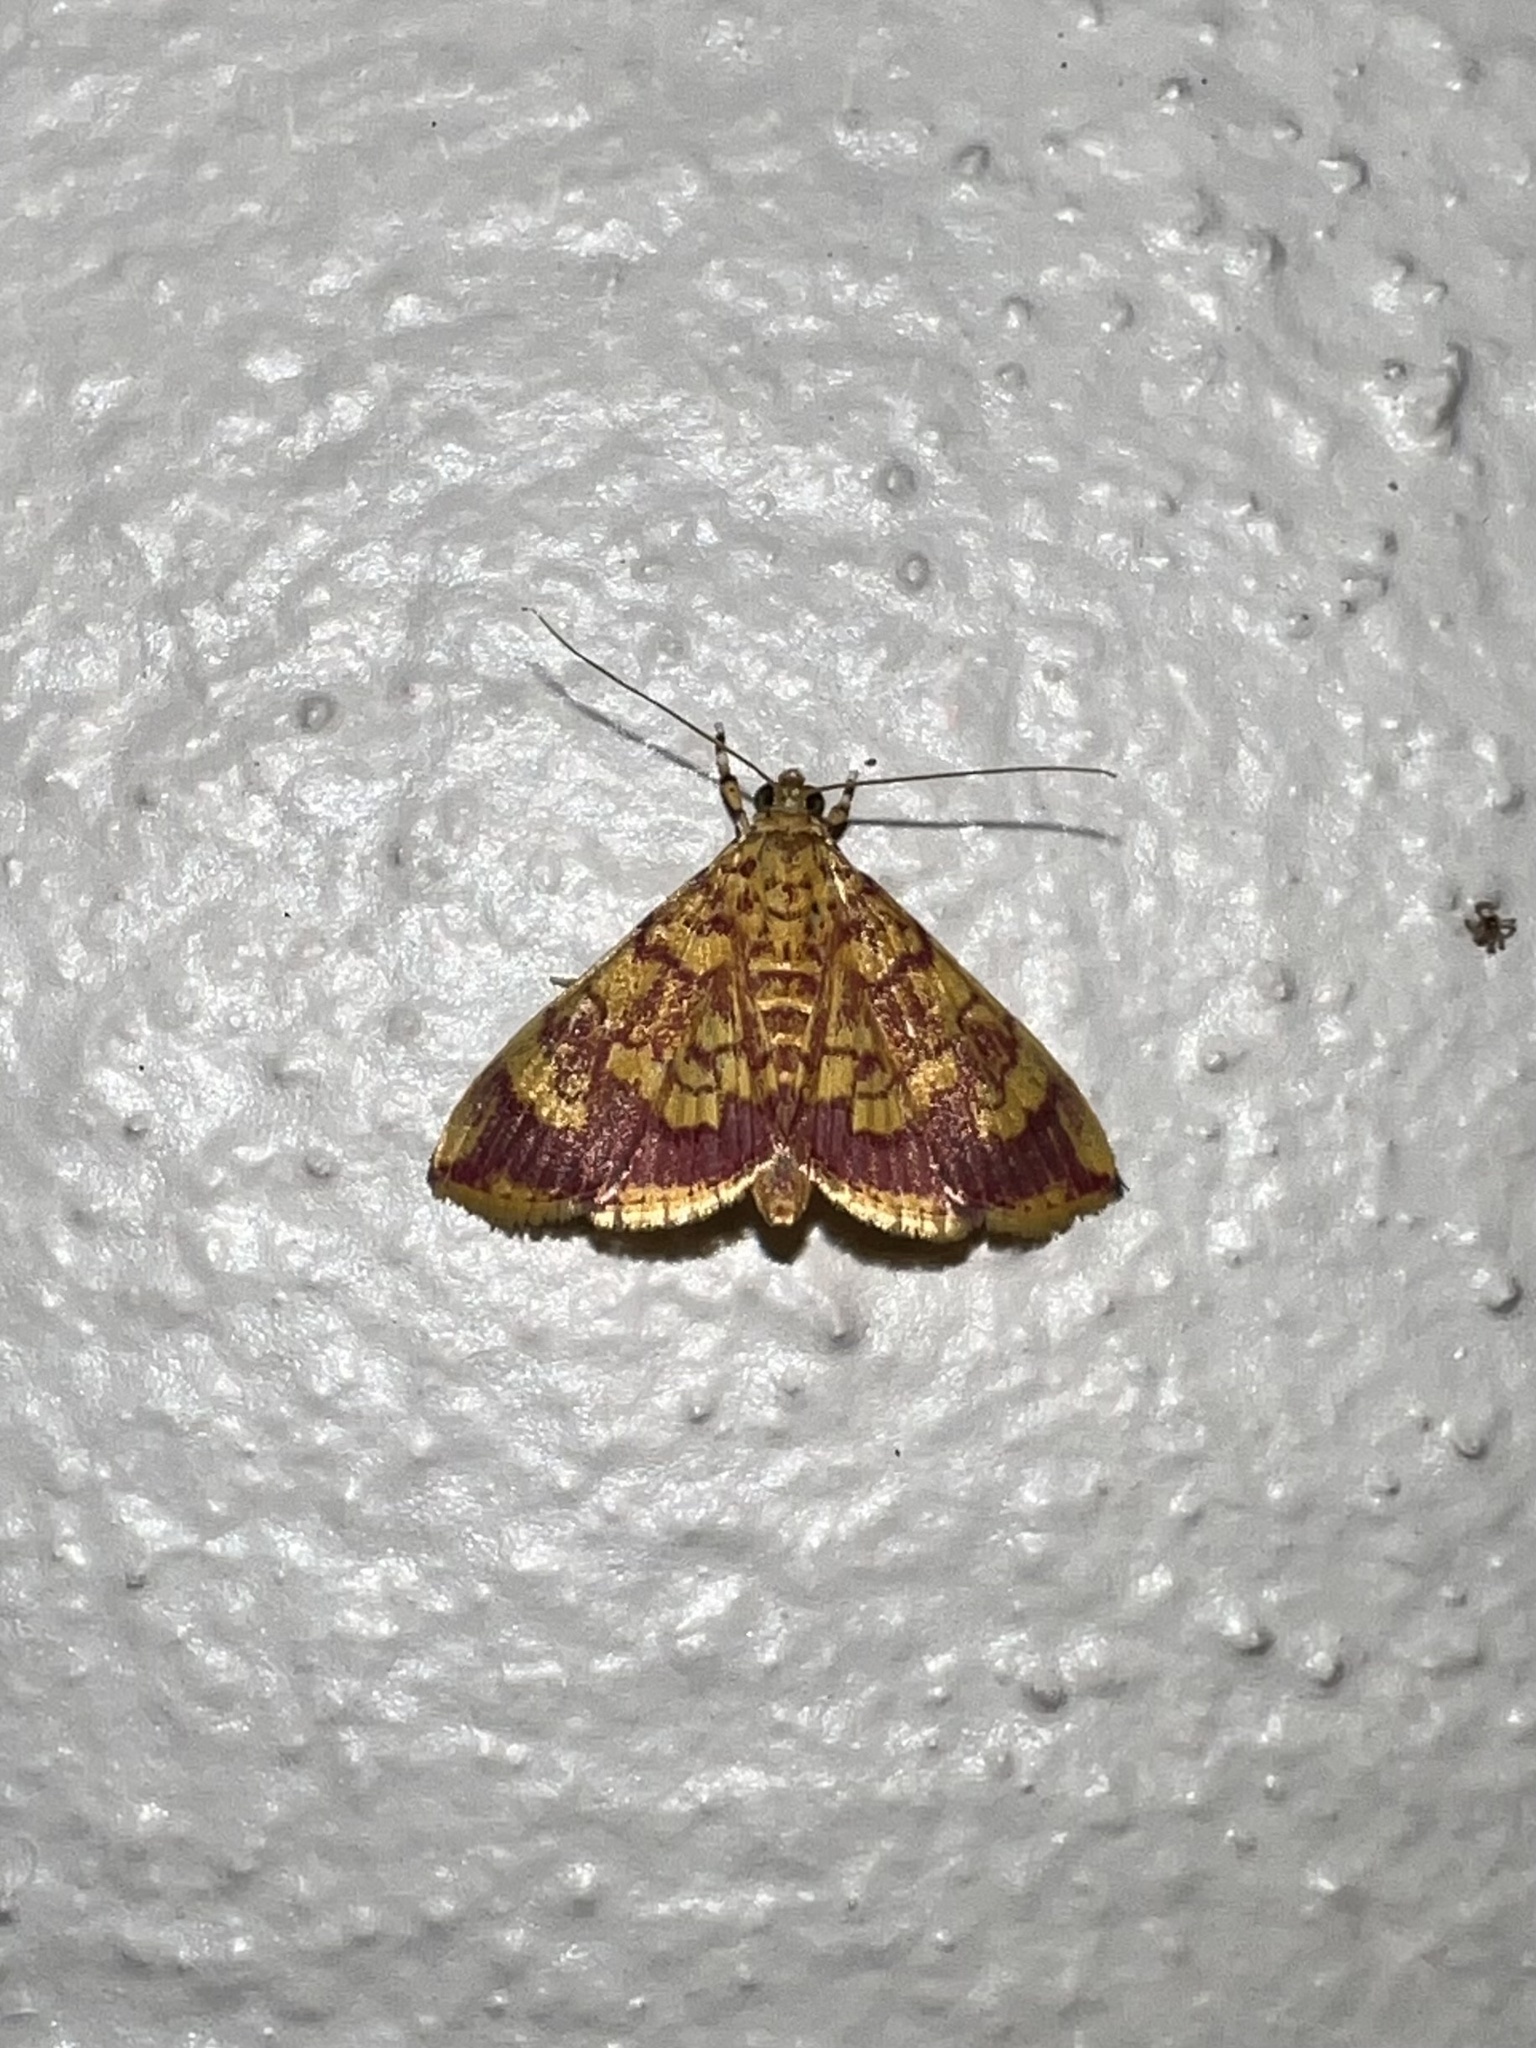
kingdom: Animalia
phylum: Arthropoda
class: Insecta
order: Lepidoptera
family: Crambidae
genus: Portentomorpha
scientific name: Portentomorpha xanthialis
